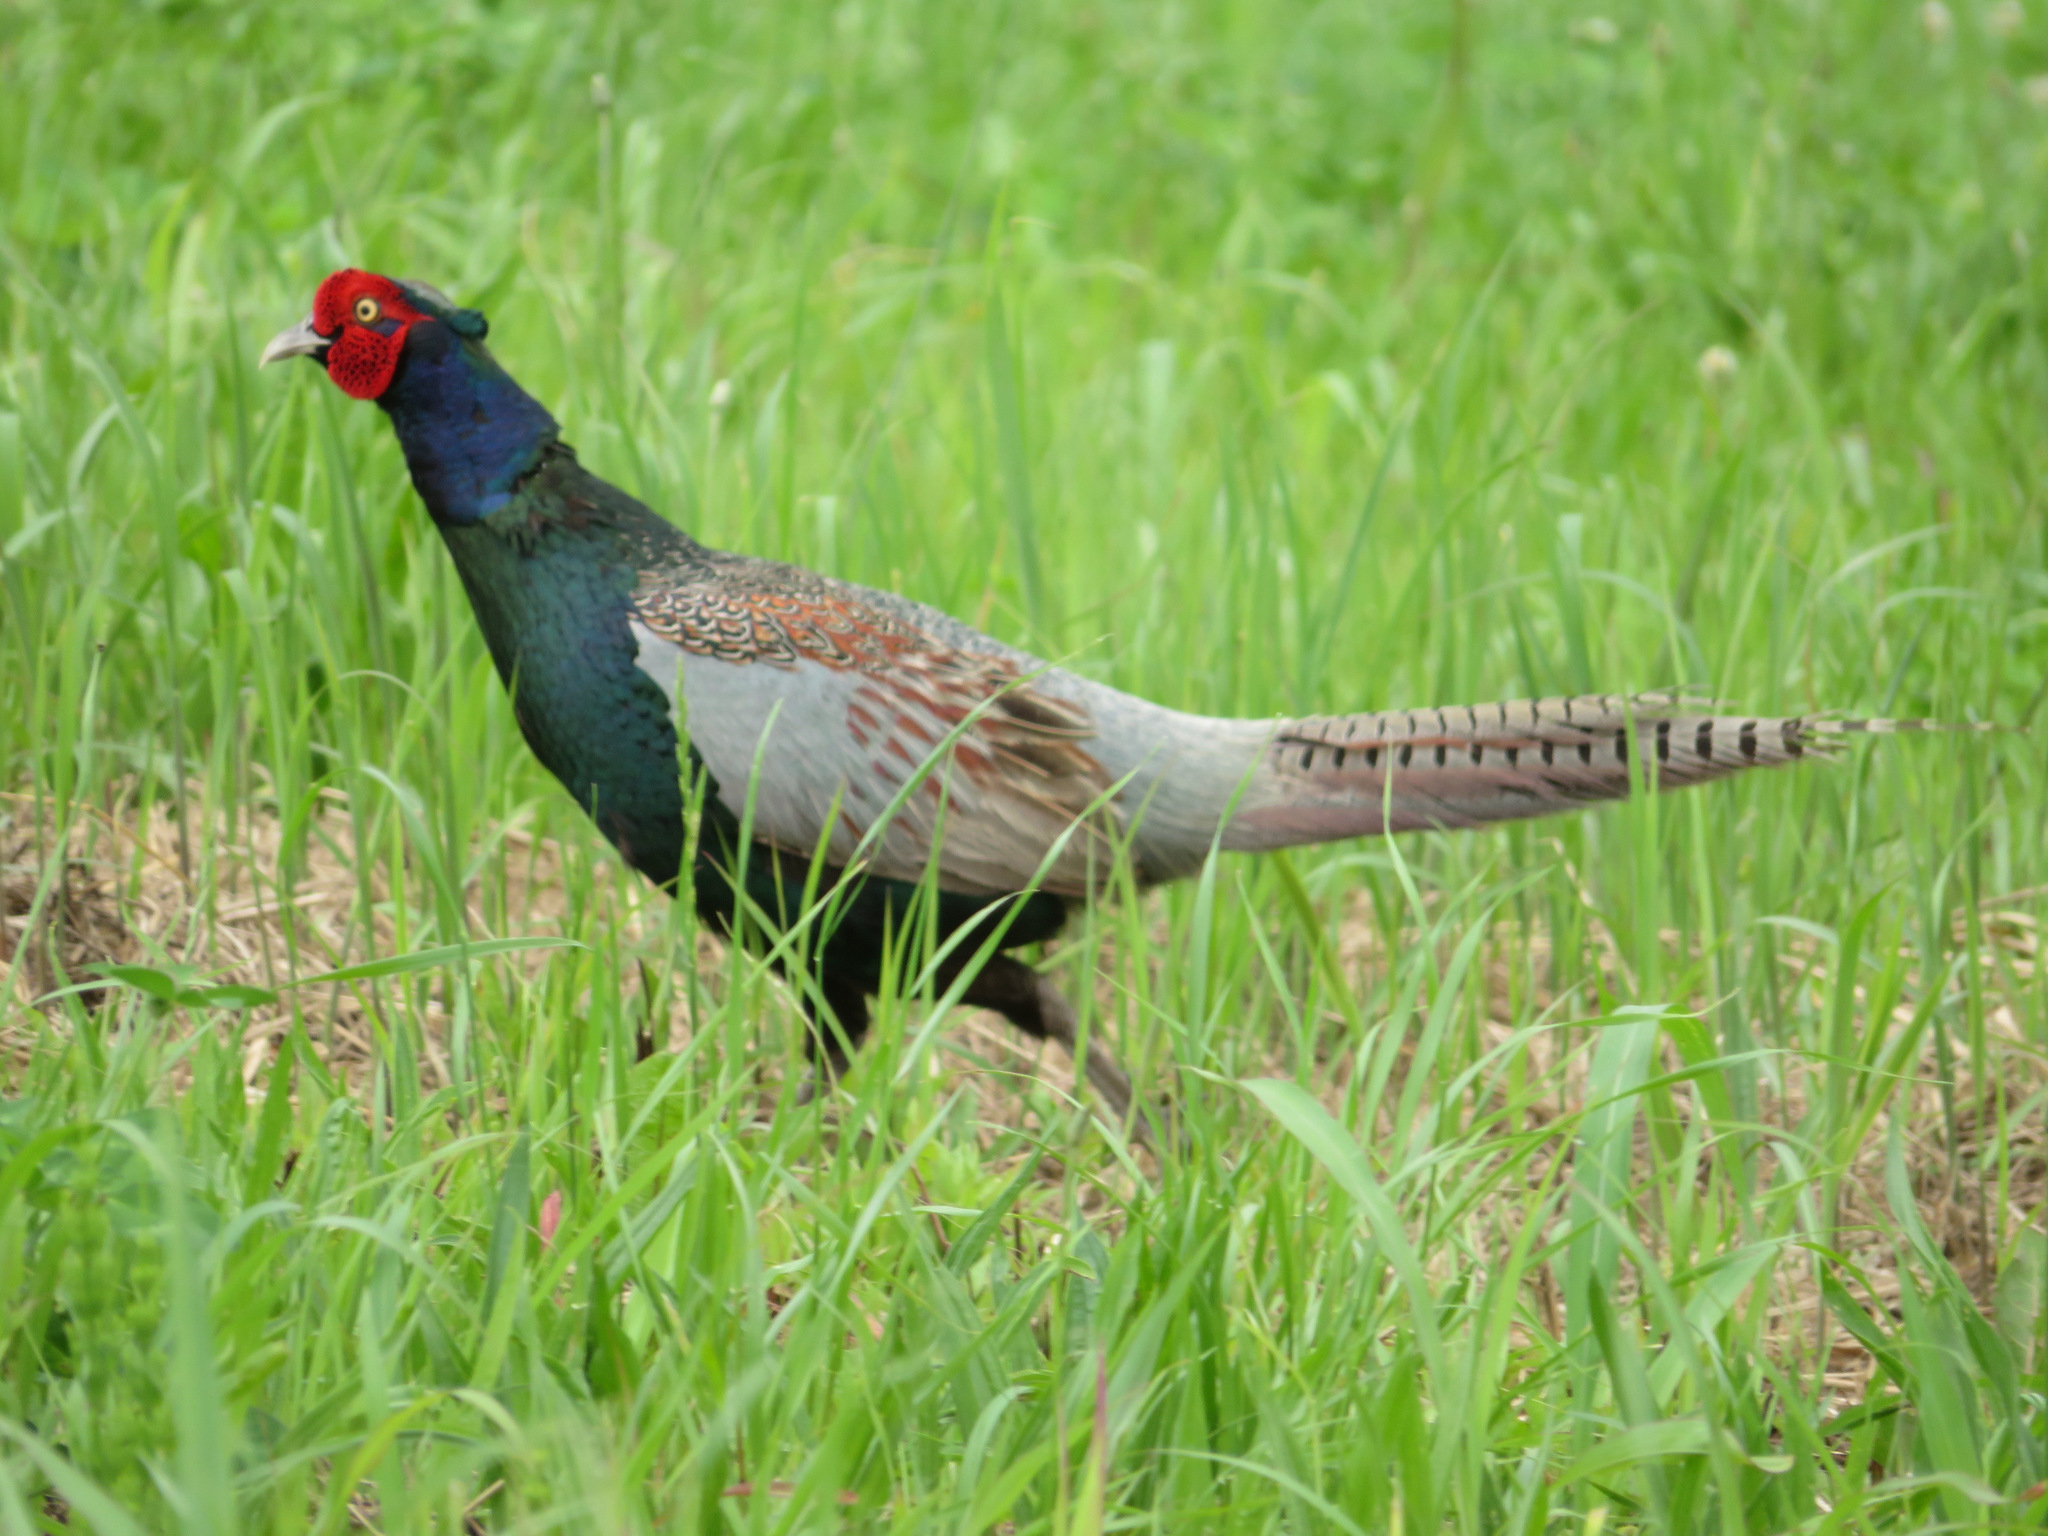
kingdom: Animalia
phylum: Chordata
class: Aves
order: Galliformes
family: Phasianidae
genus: Phasianus
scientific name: Phasianus versicolor
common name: Green pheasant
